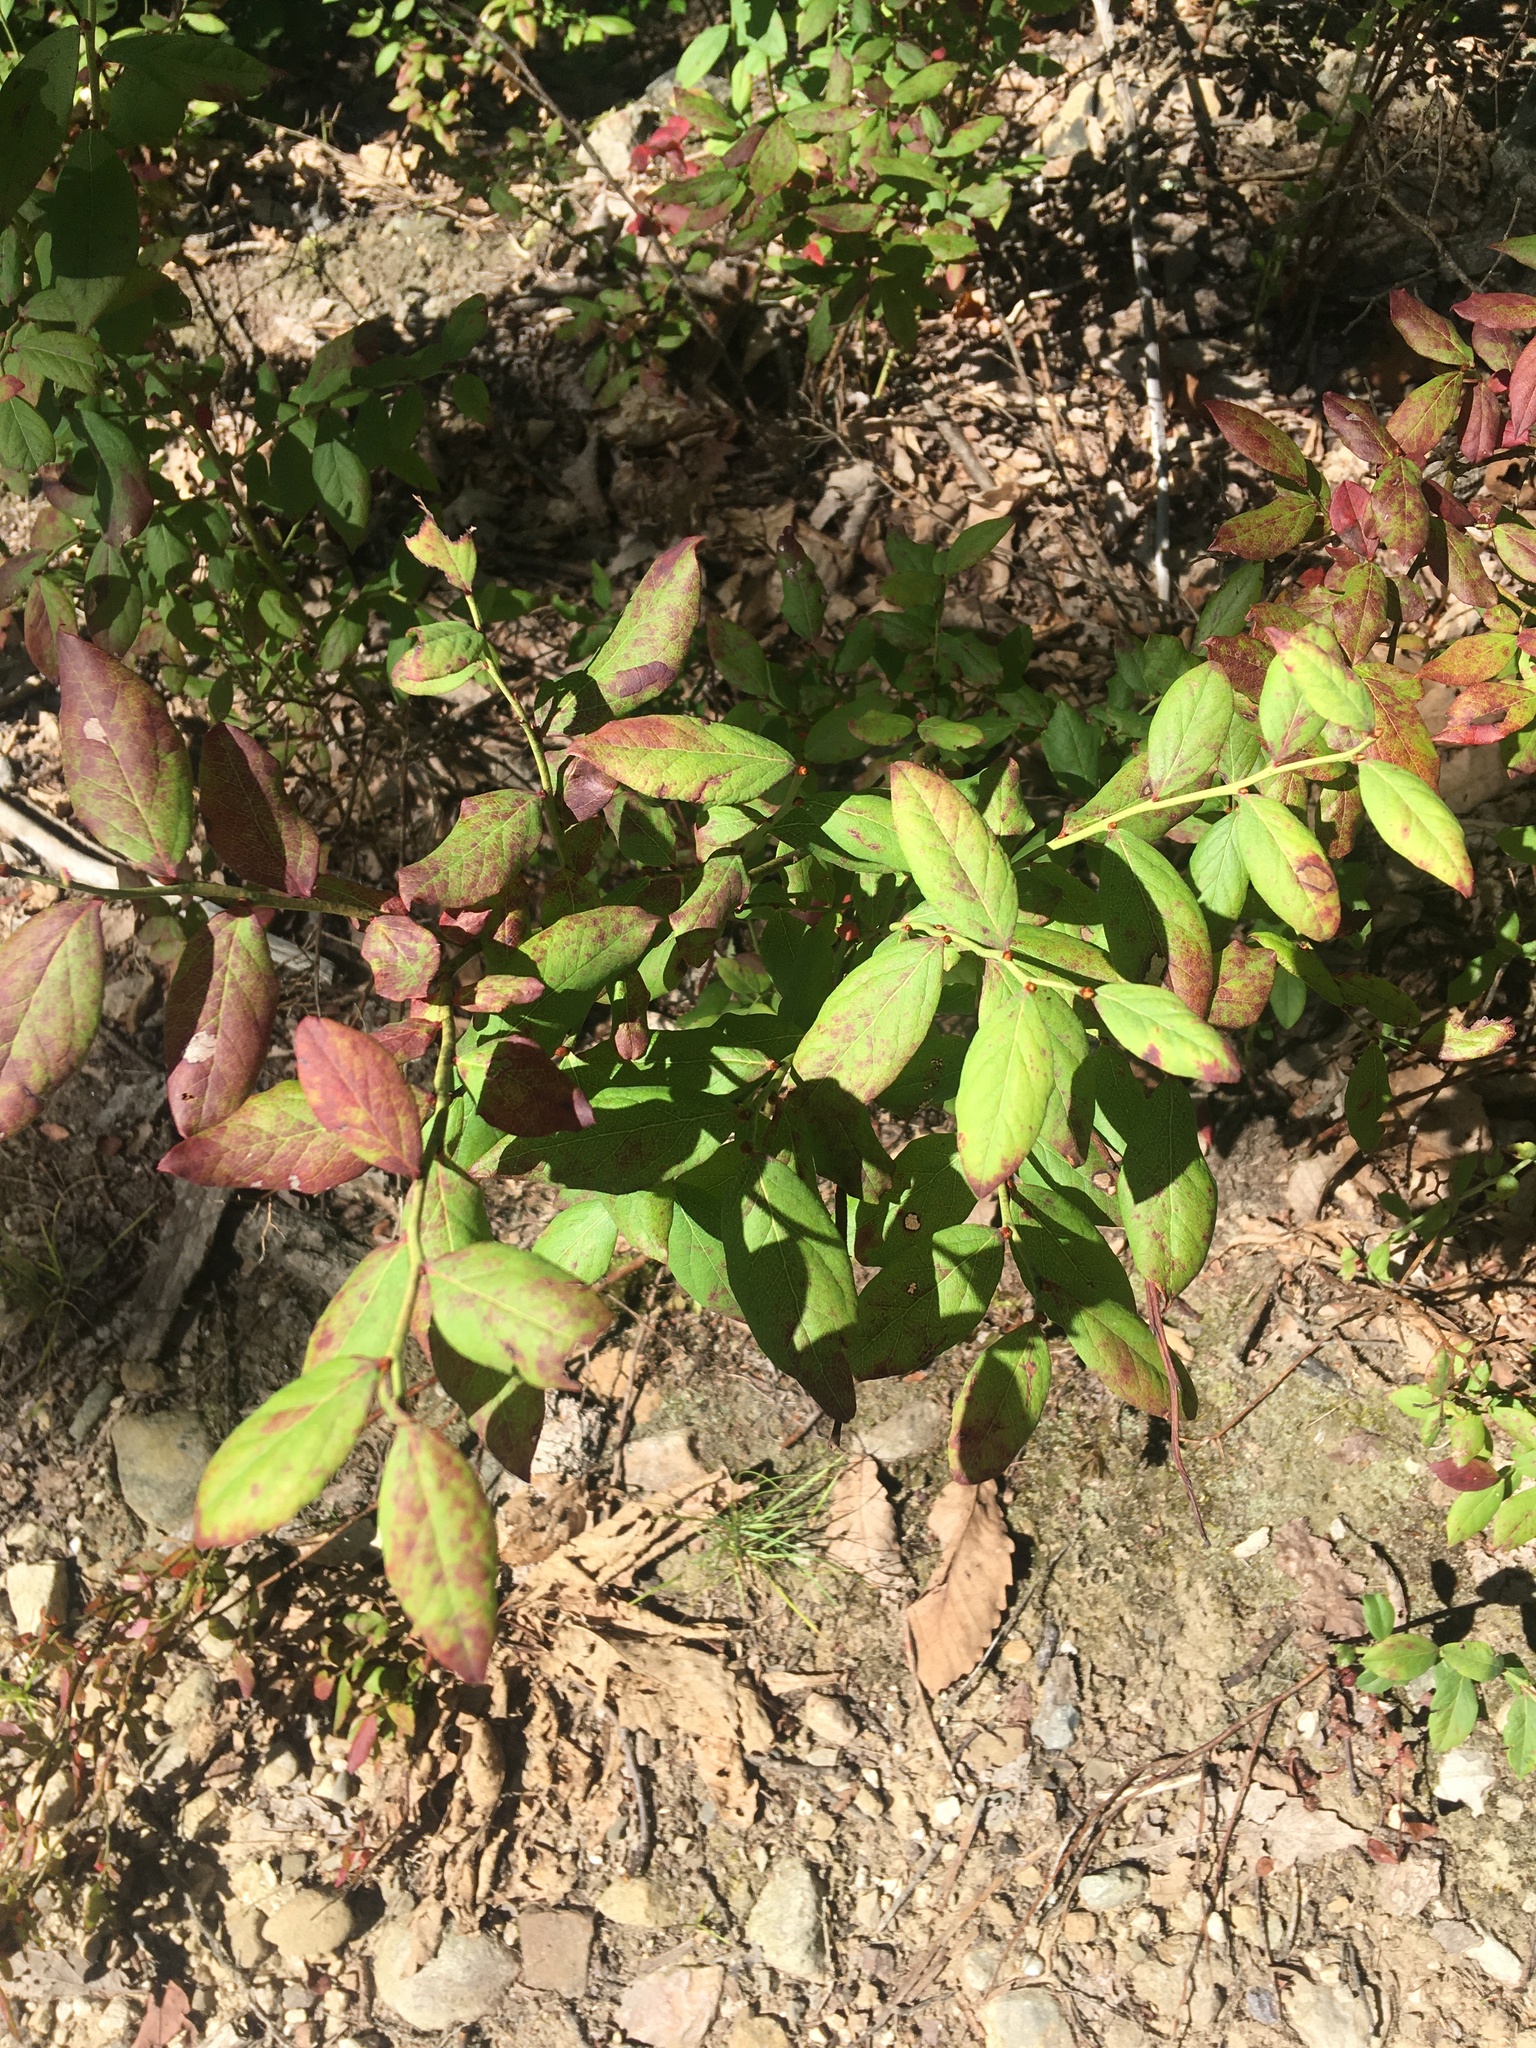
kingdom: Plantae
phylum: Tracheophyta
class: Magnoliopsida
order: Ericales
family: Ericaceae
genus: Vaccinium
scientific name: Vaccinium corymbosum
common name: Blueberry
